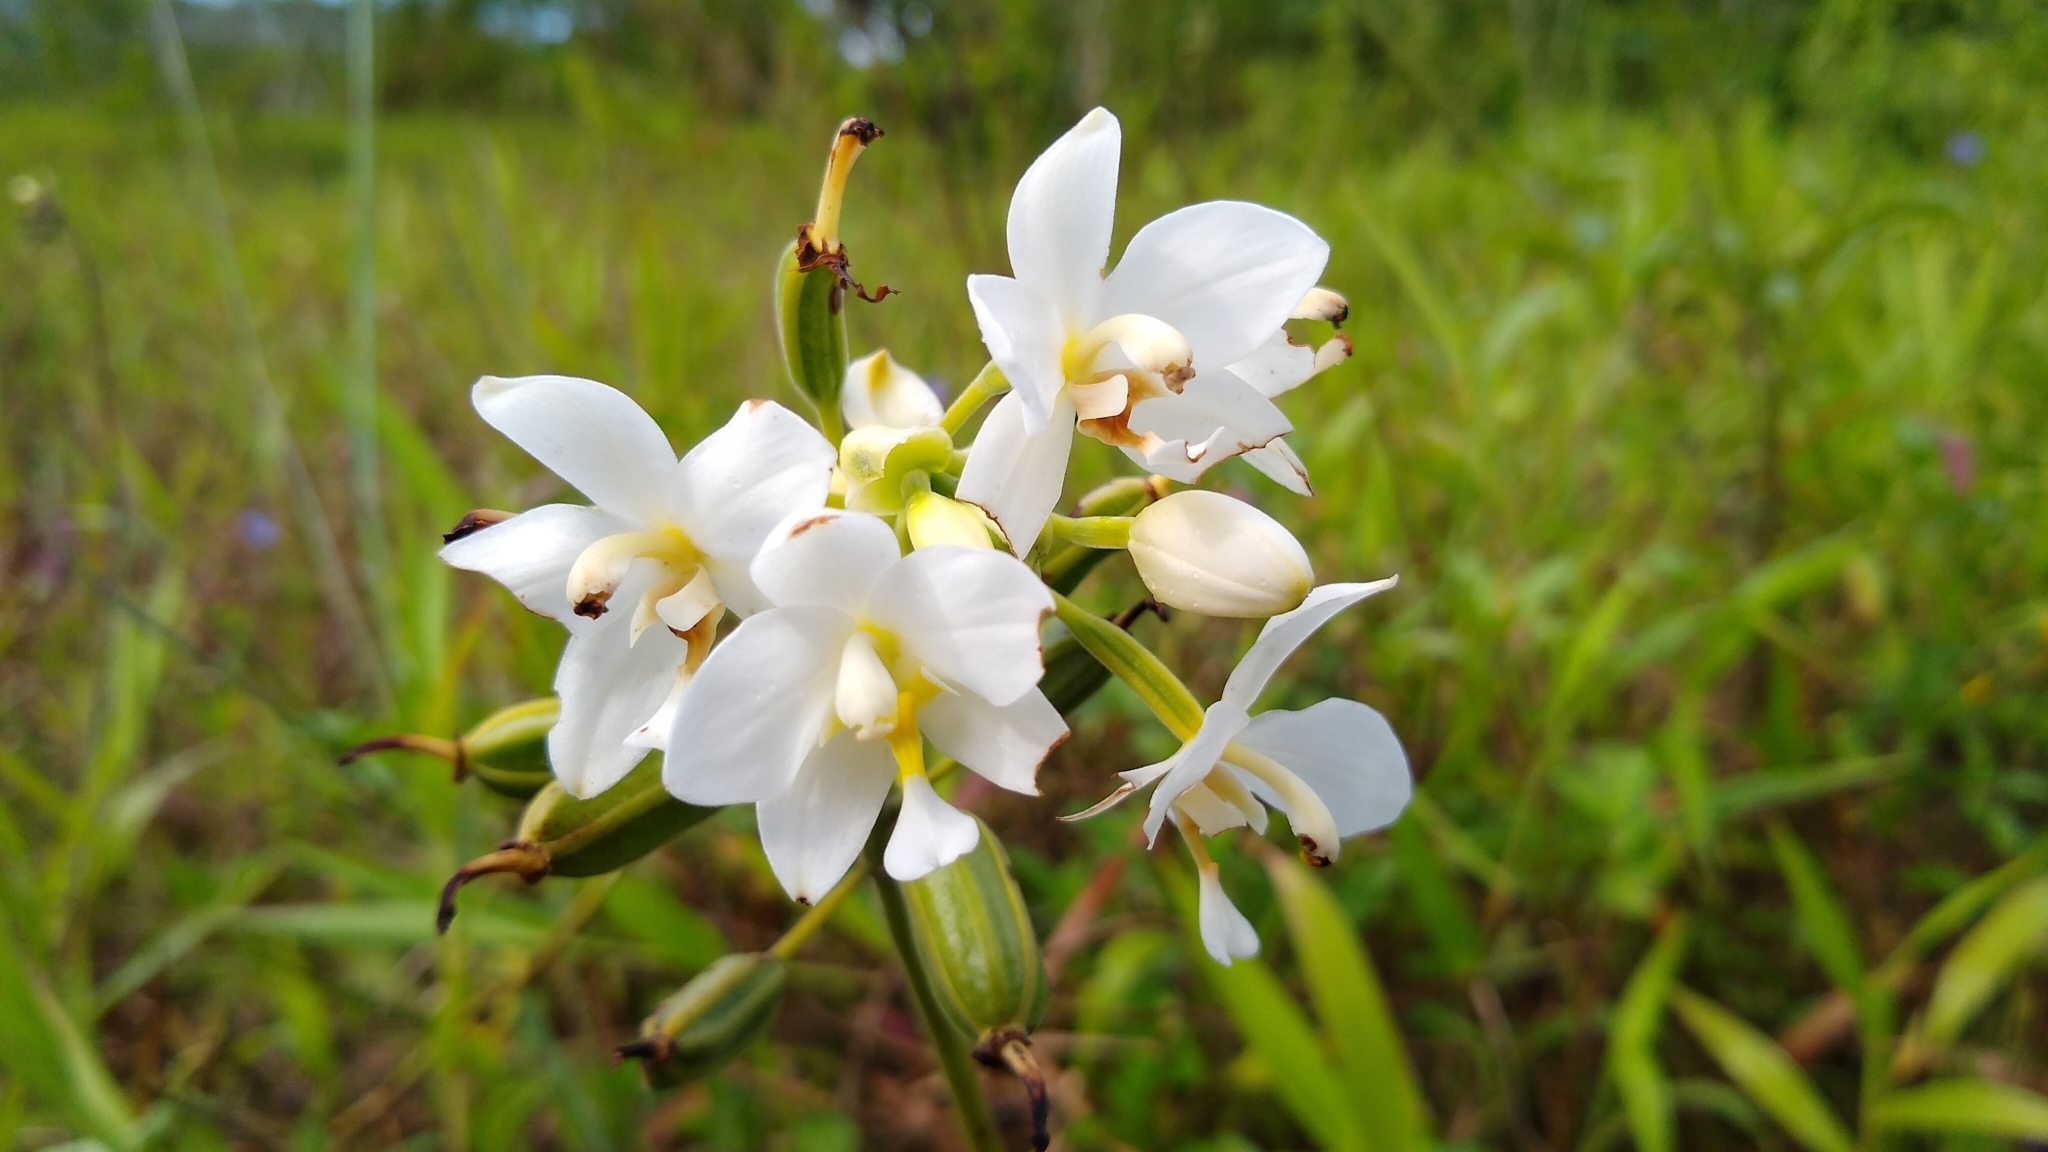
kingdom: Plantae
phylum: Tracheophyta
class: Liliopsida
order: Asparagales
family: Orchidaceae
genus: Spathoglottis
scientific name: Spathoglottis micronesiaca
